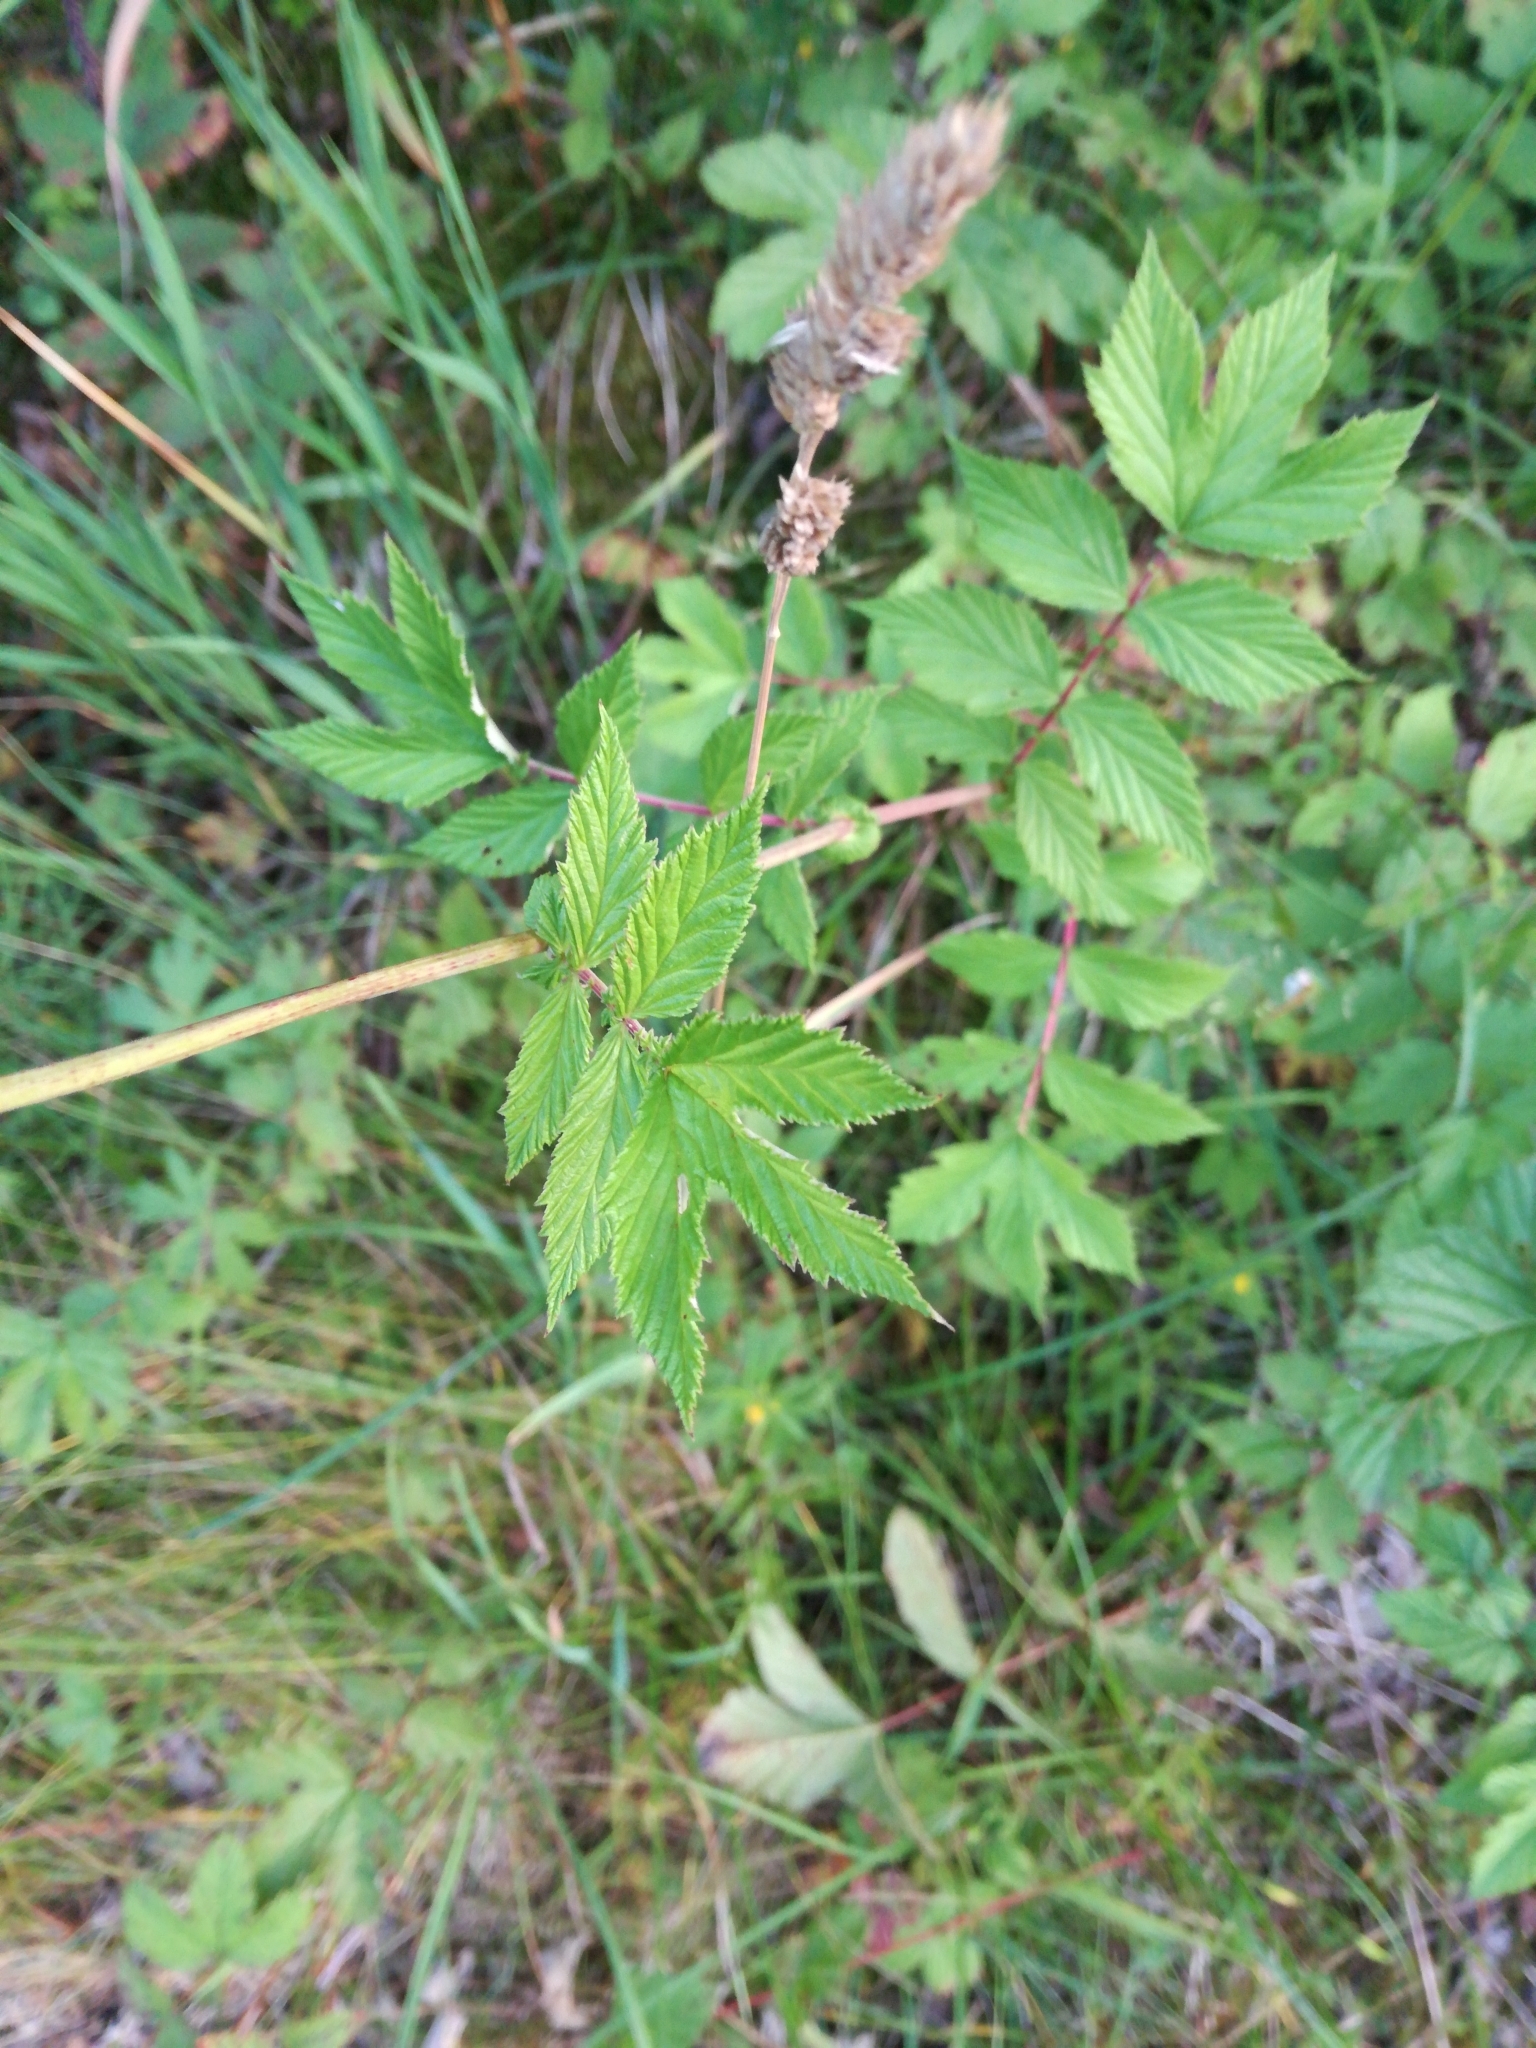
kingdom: Plantae
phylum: Tracheophyta
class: Magnoliopsida
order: Rosales
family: Rosaceae
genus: Filipendula
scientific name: Filipendula ulmaria
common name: Meadowsweet
